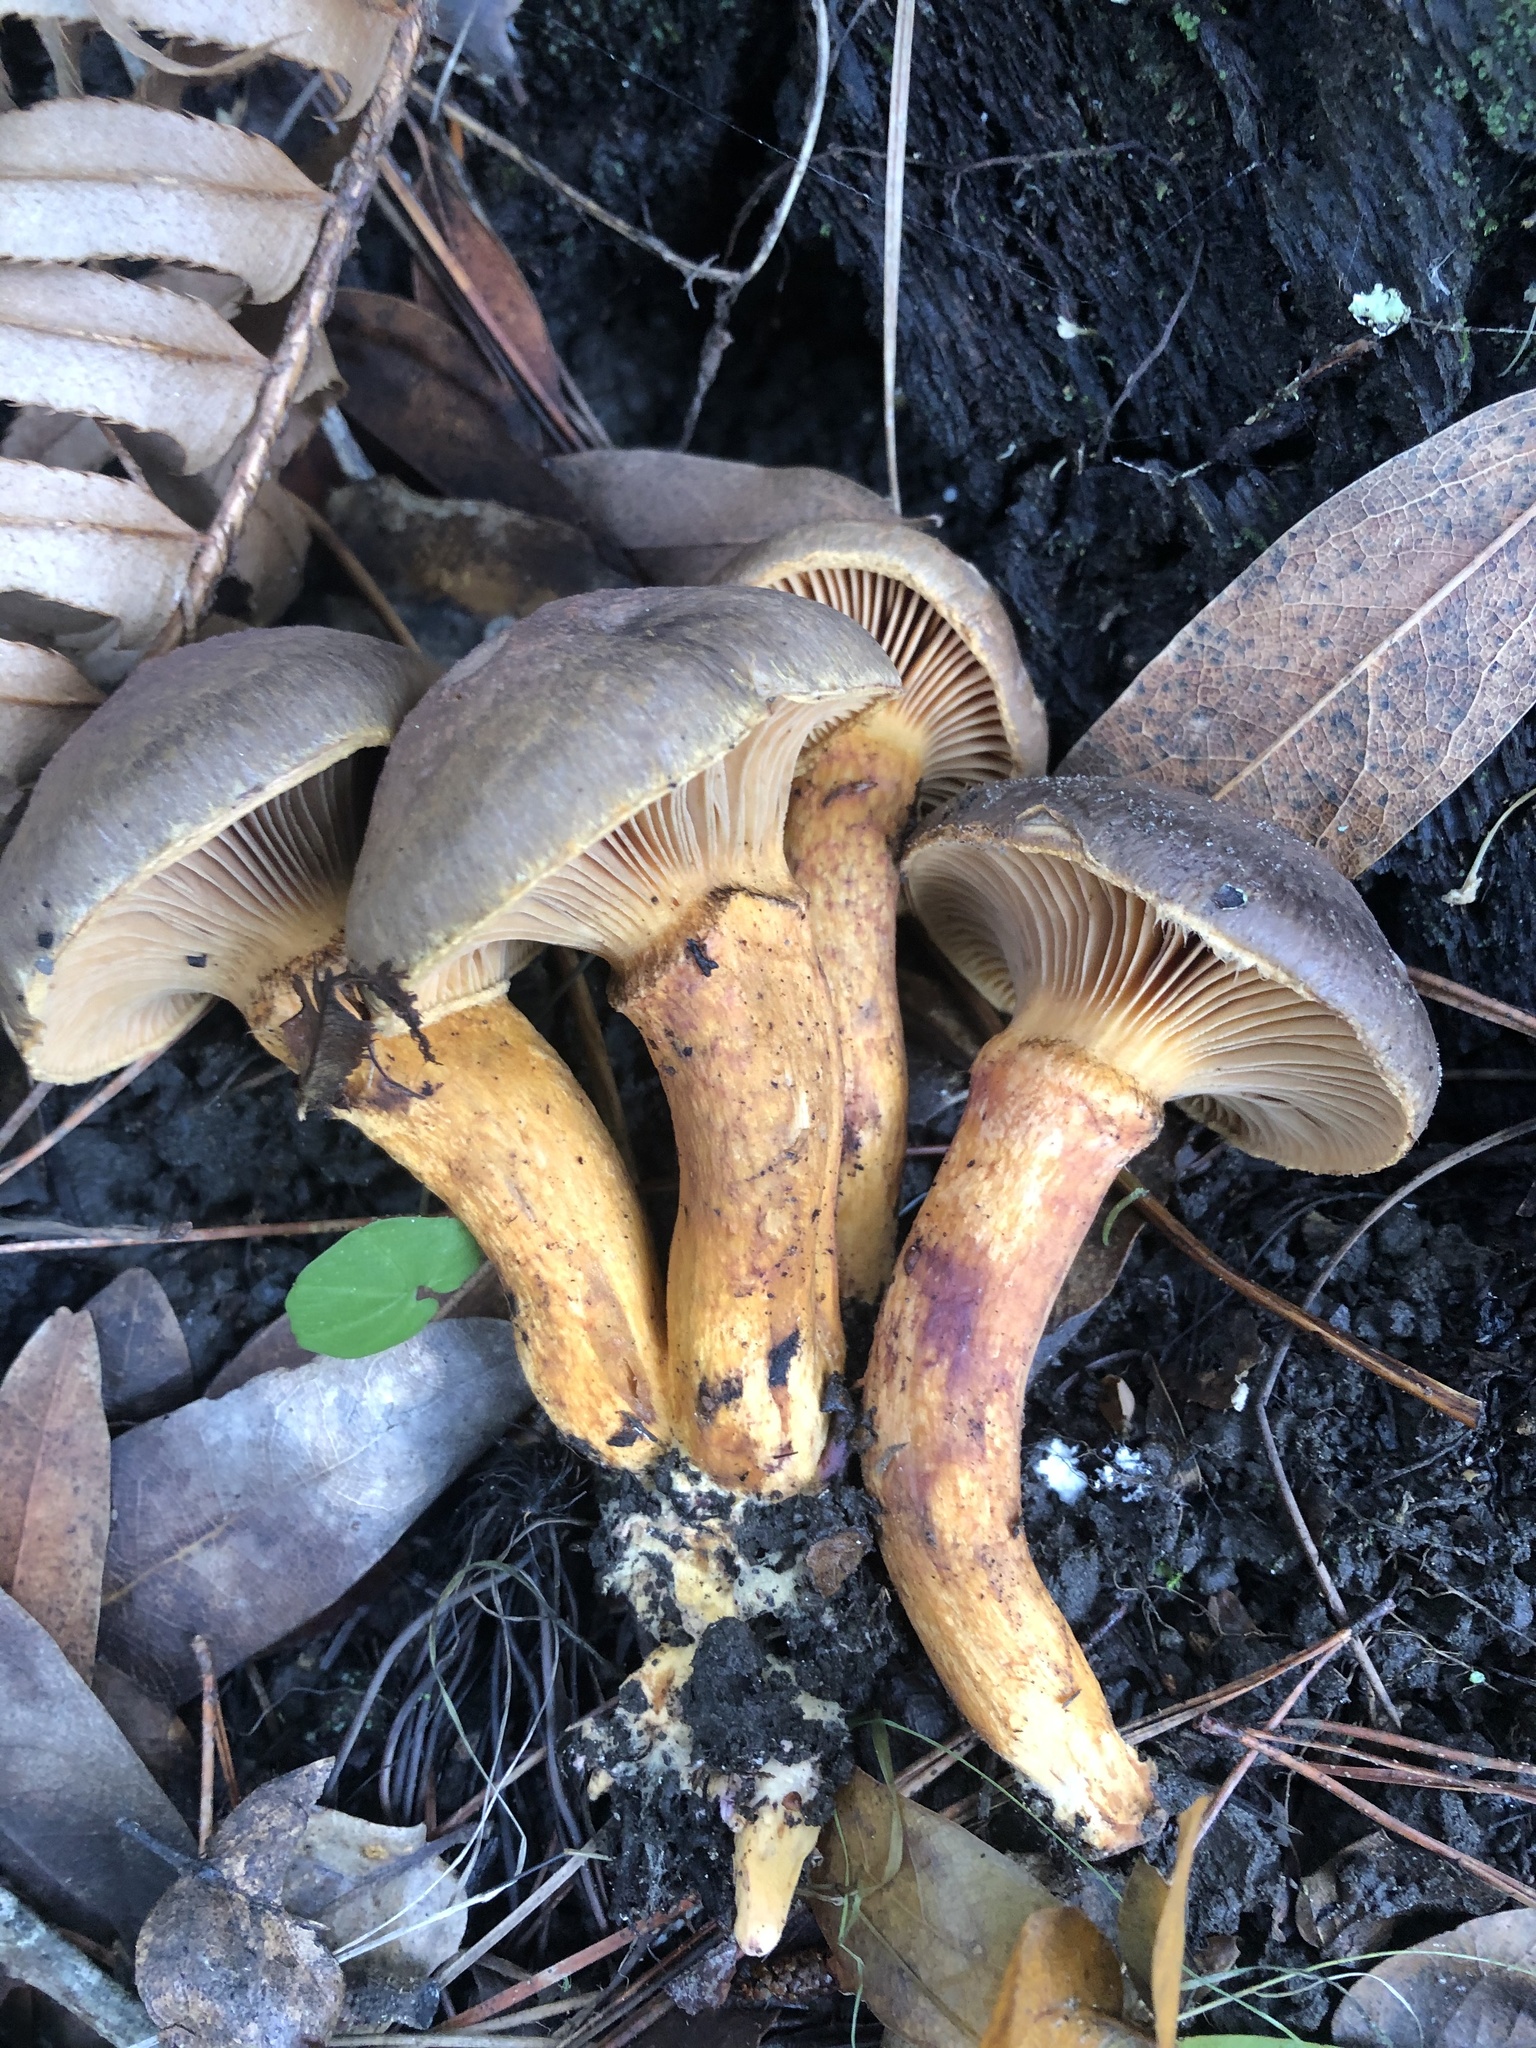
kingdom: Fungi
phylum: Basidiomycota
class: Agaricomycetes
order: Boletales
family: Gomphidiaceae
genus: Chroogomphus
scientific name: Chroogomphus vinicolor
